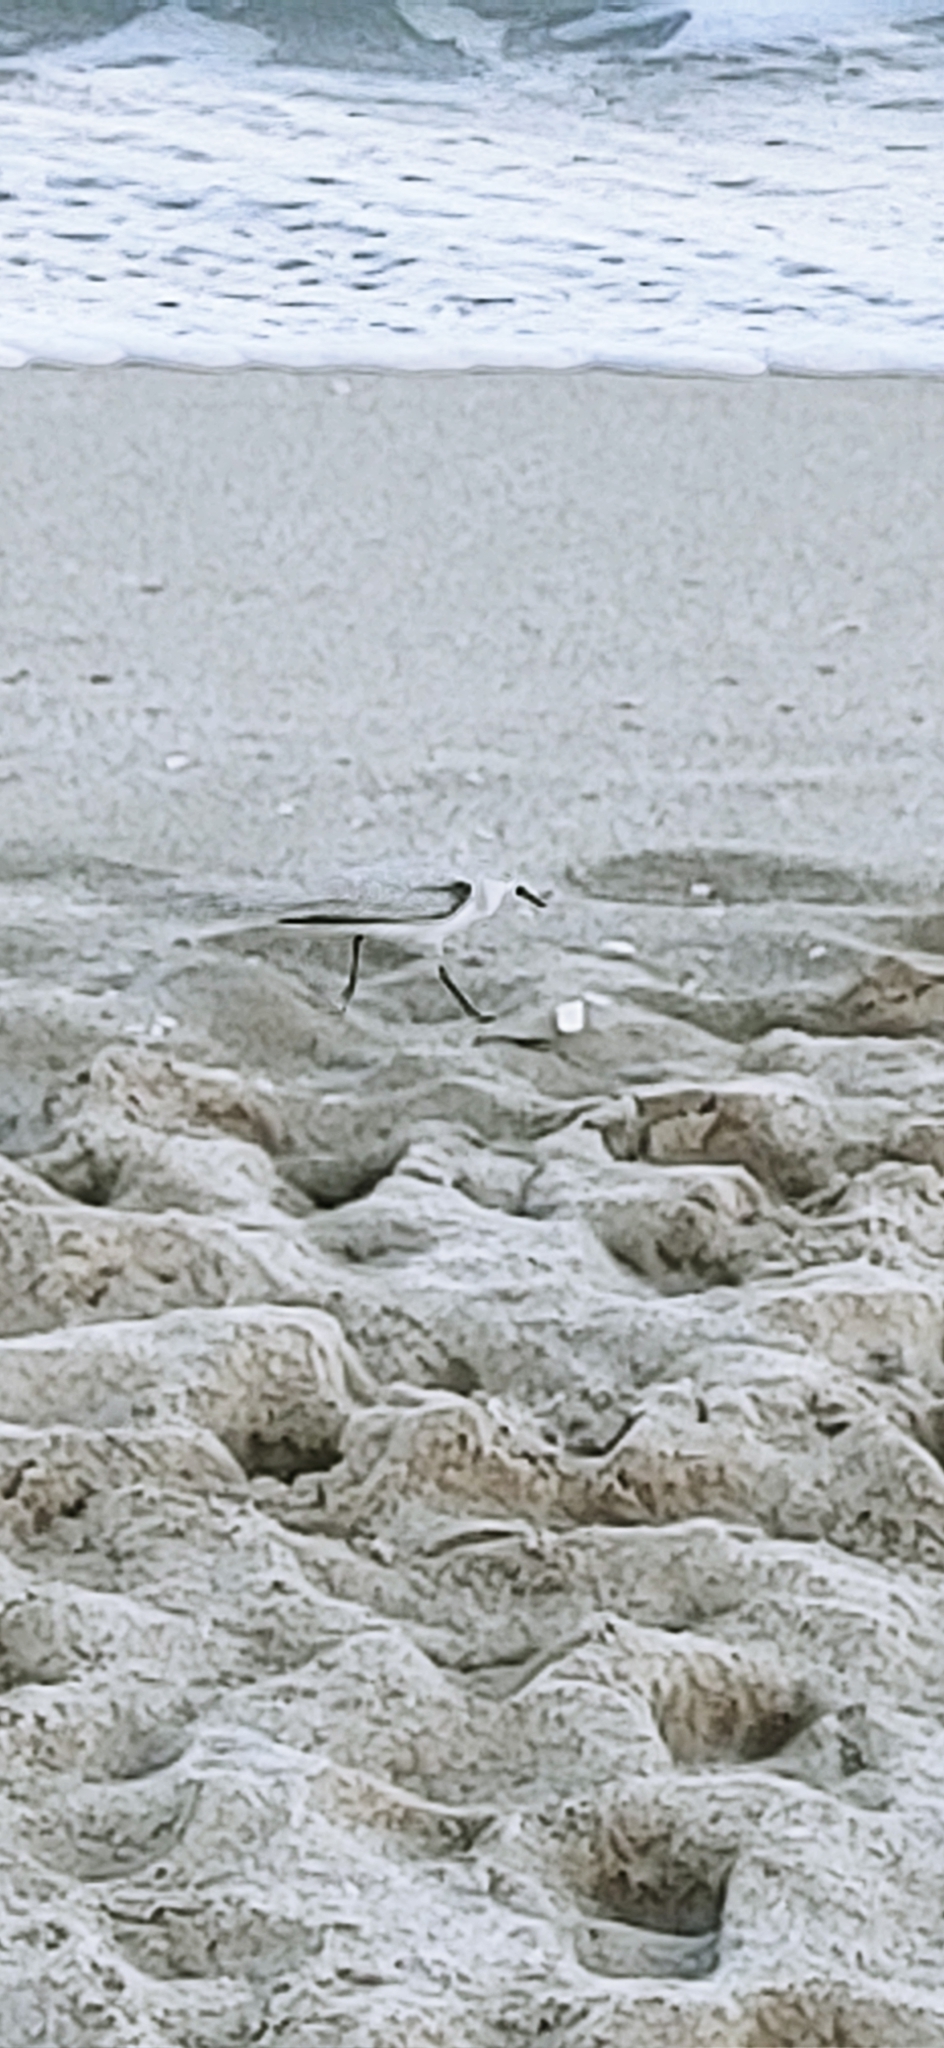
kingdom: Animalia
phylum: Chordata
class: Aves
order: Charadriiformes
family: Scolopacidae
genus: Calidris
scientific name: Calidris alba
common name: Sanderling
